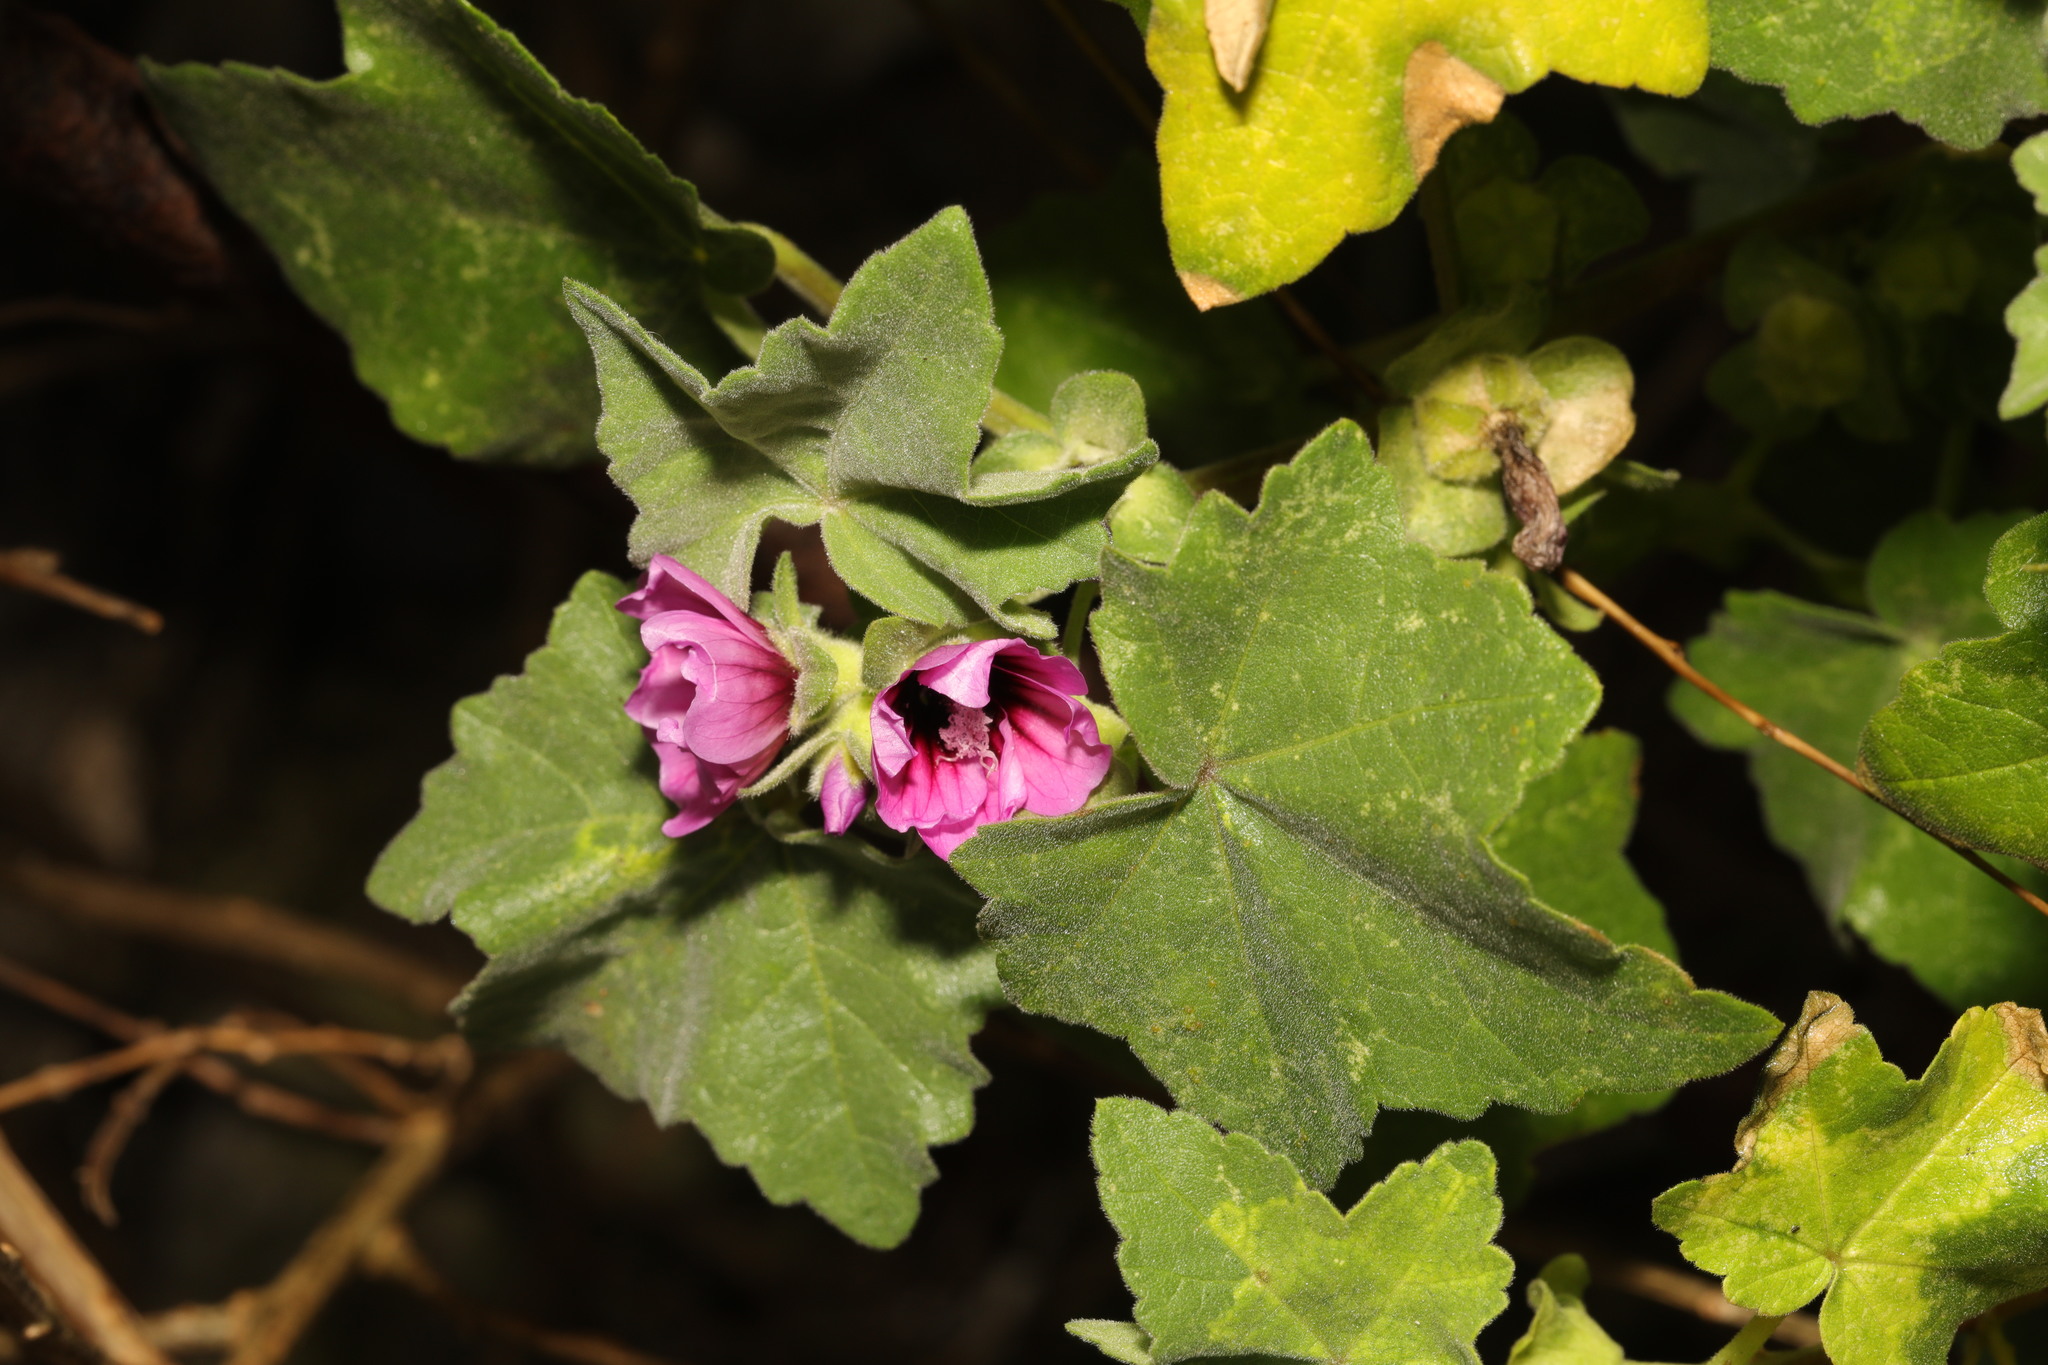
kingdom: Plantae
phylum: Tracheophyta
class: Magnoliopsida
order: Malvales
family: Malvaceae
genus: Malva
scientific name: Malva arborea
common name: Tree mallow
